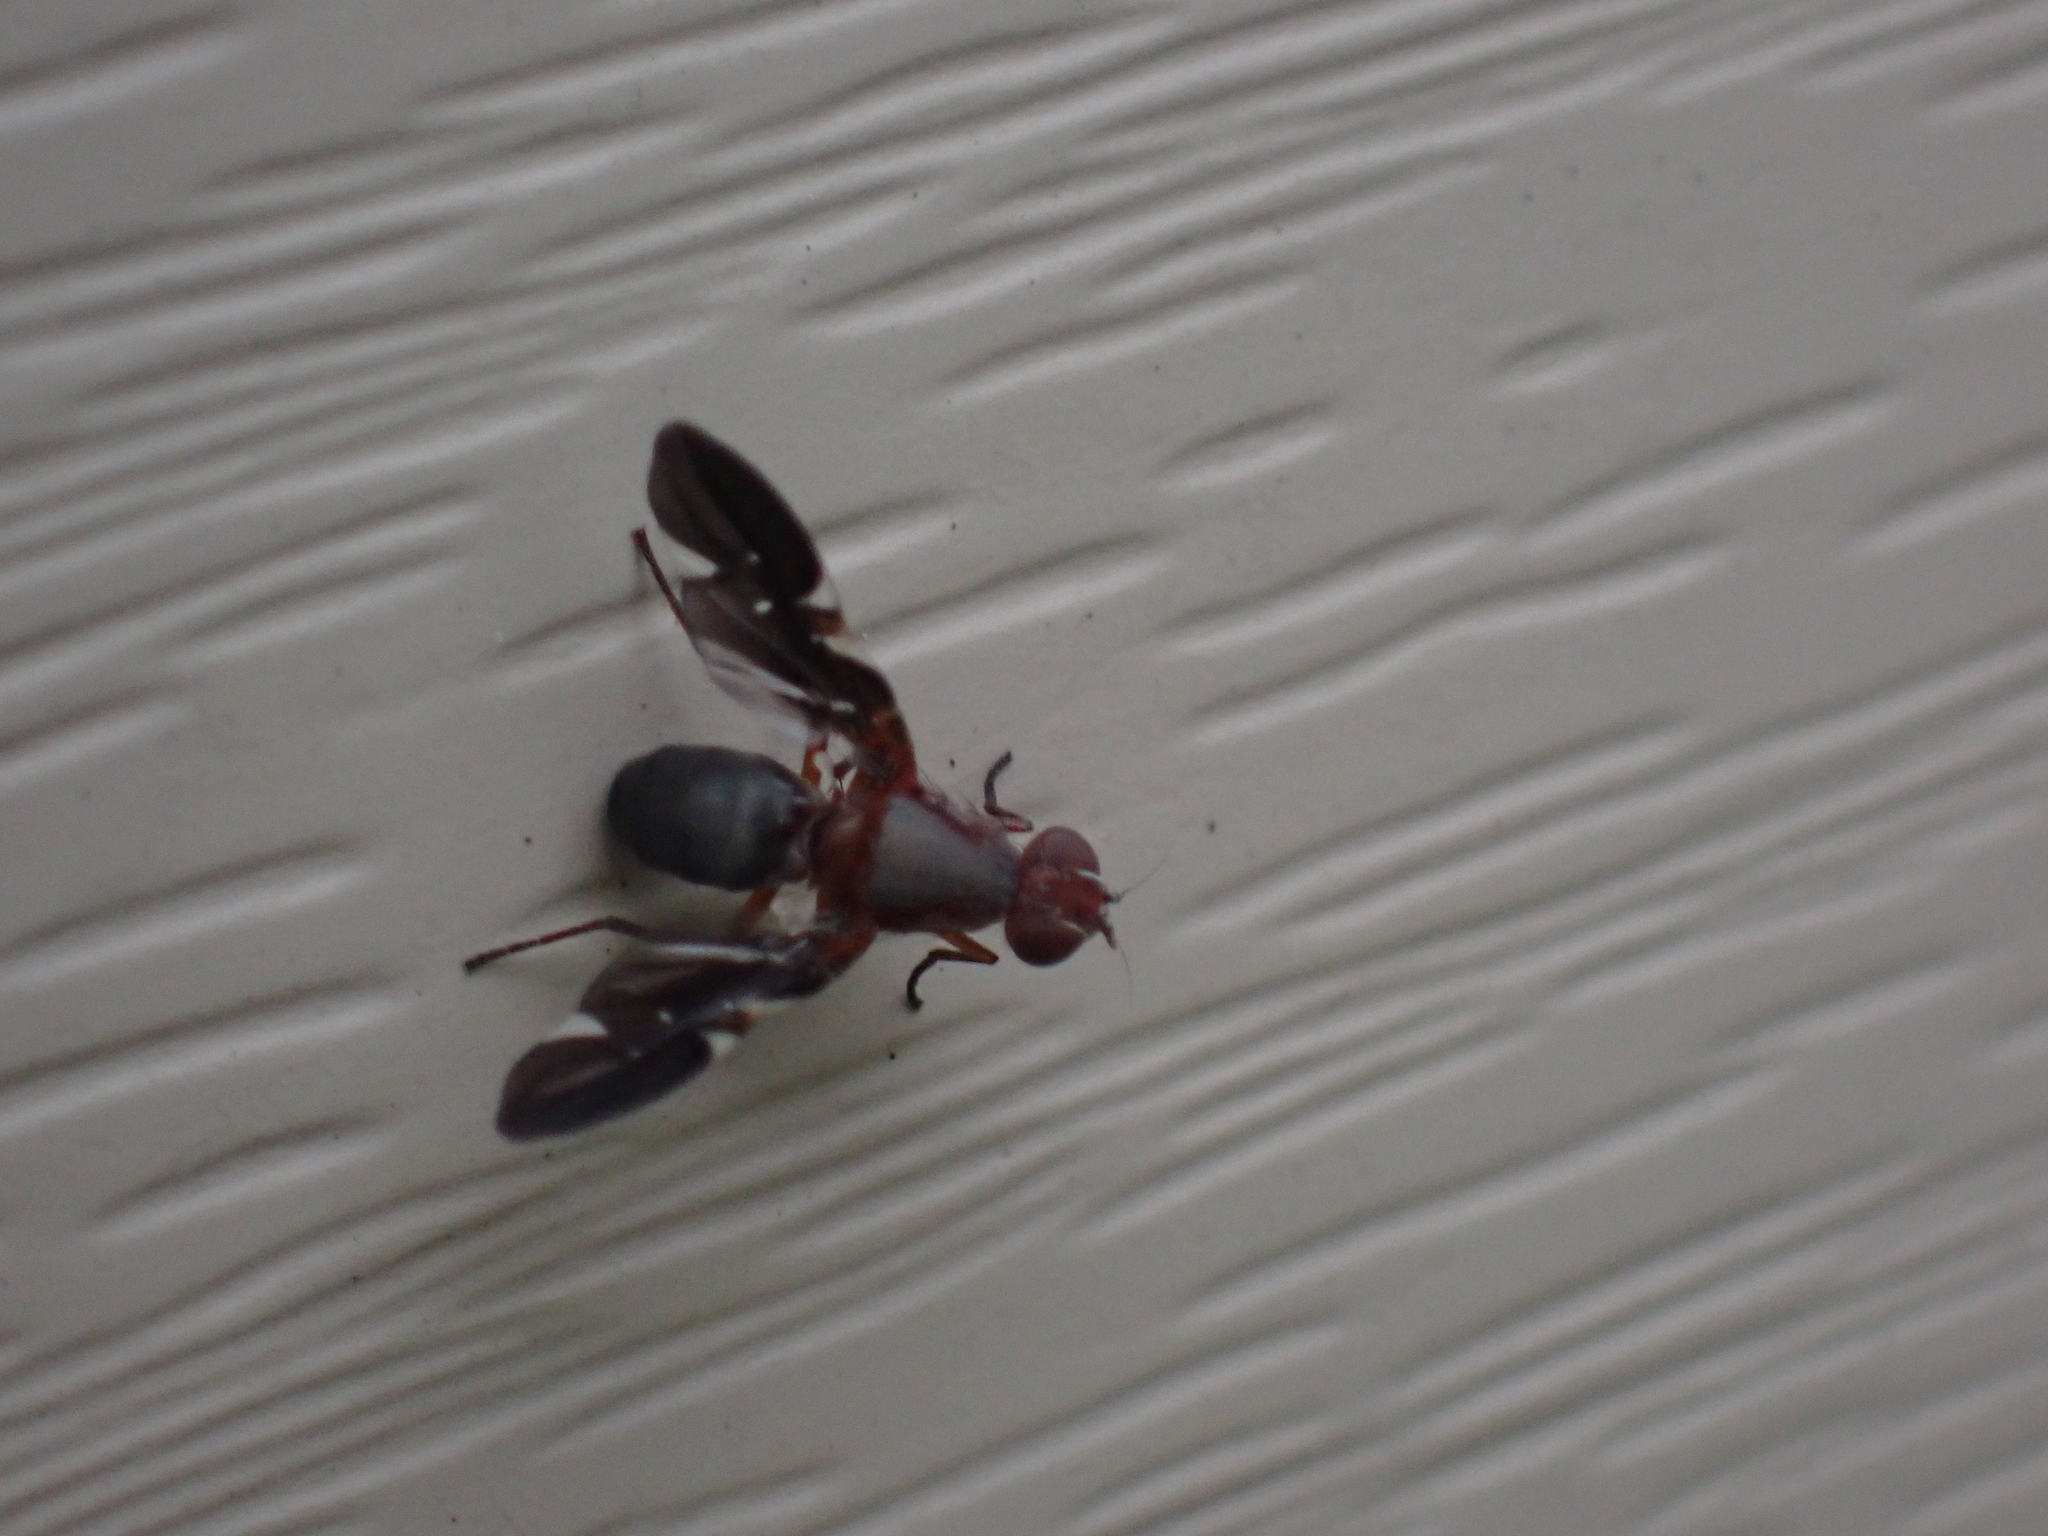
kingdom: Animalia
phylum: Arthropoda
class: Insecta
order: Diptera
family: Ulidiidae
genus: Delphinia
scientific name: Delphinia picta
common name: Common picture-winged fly
